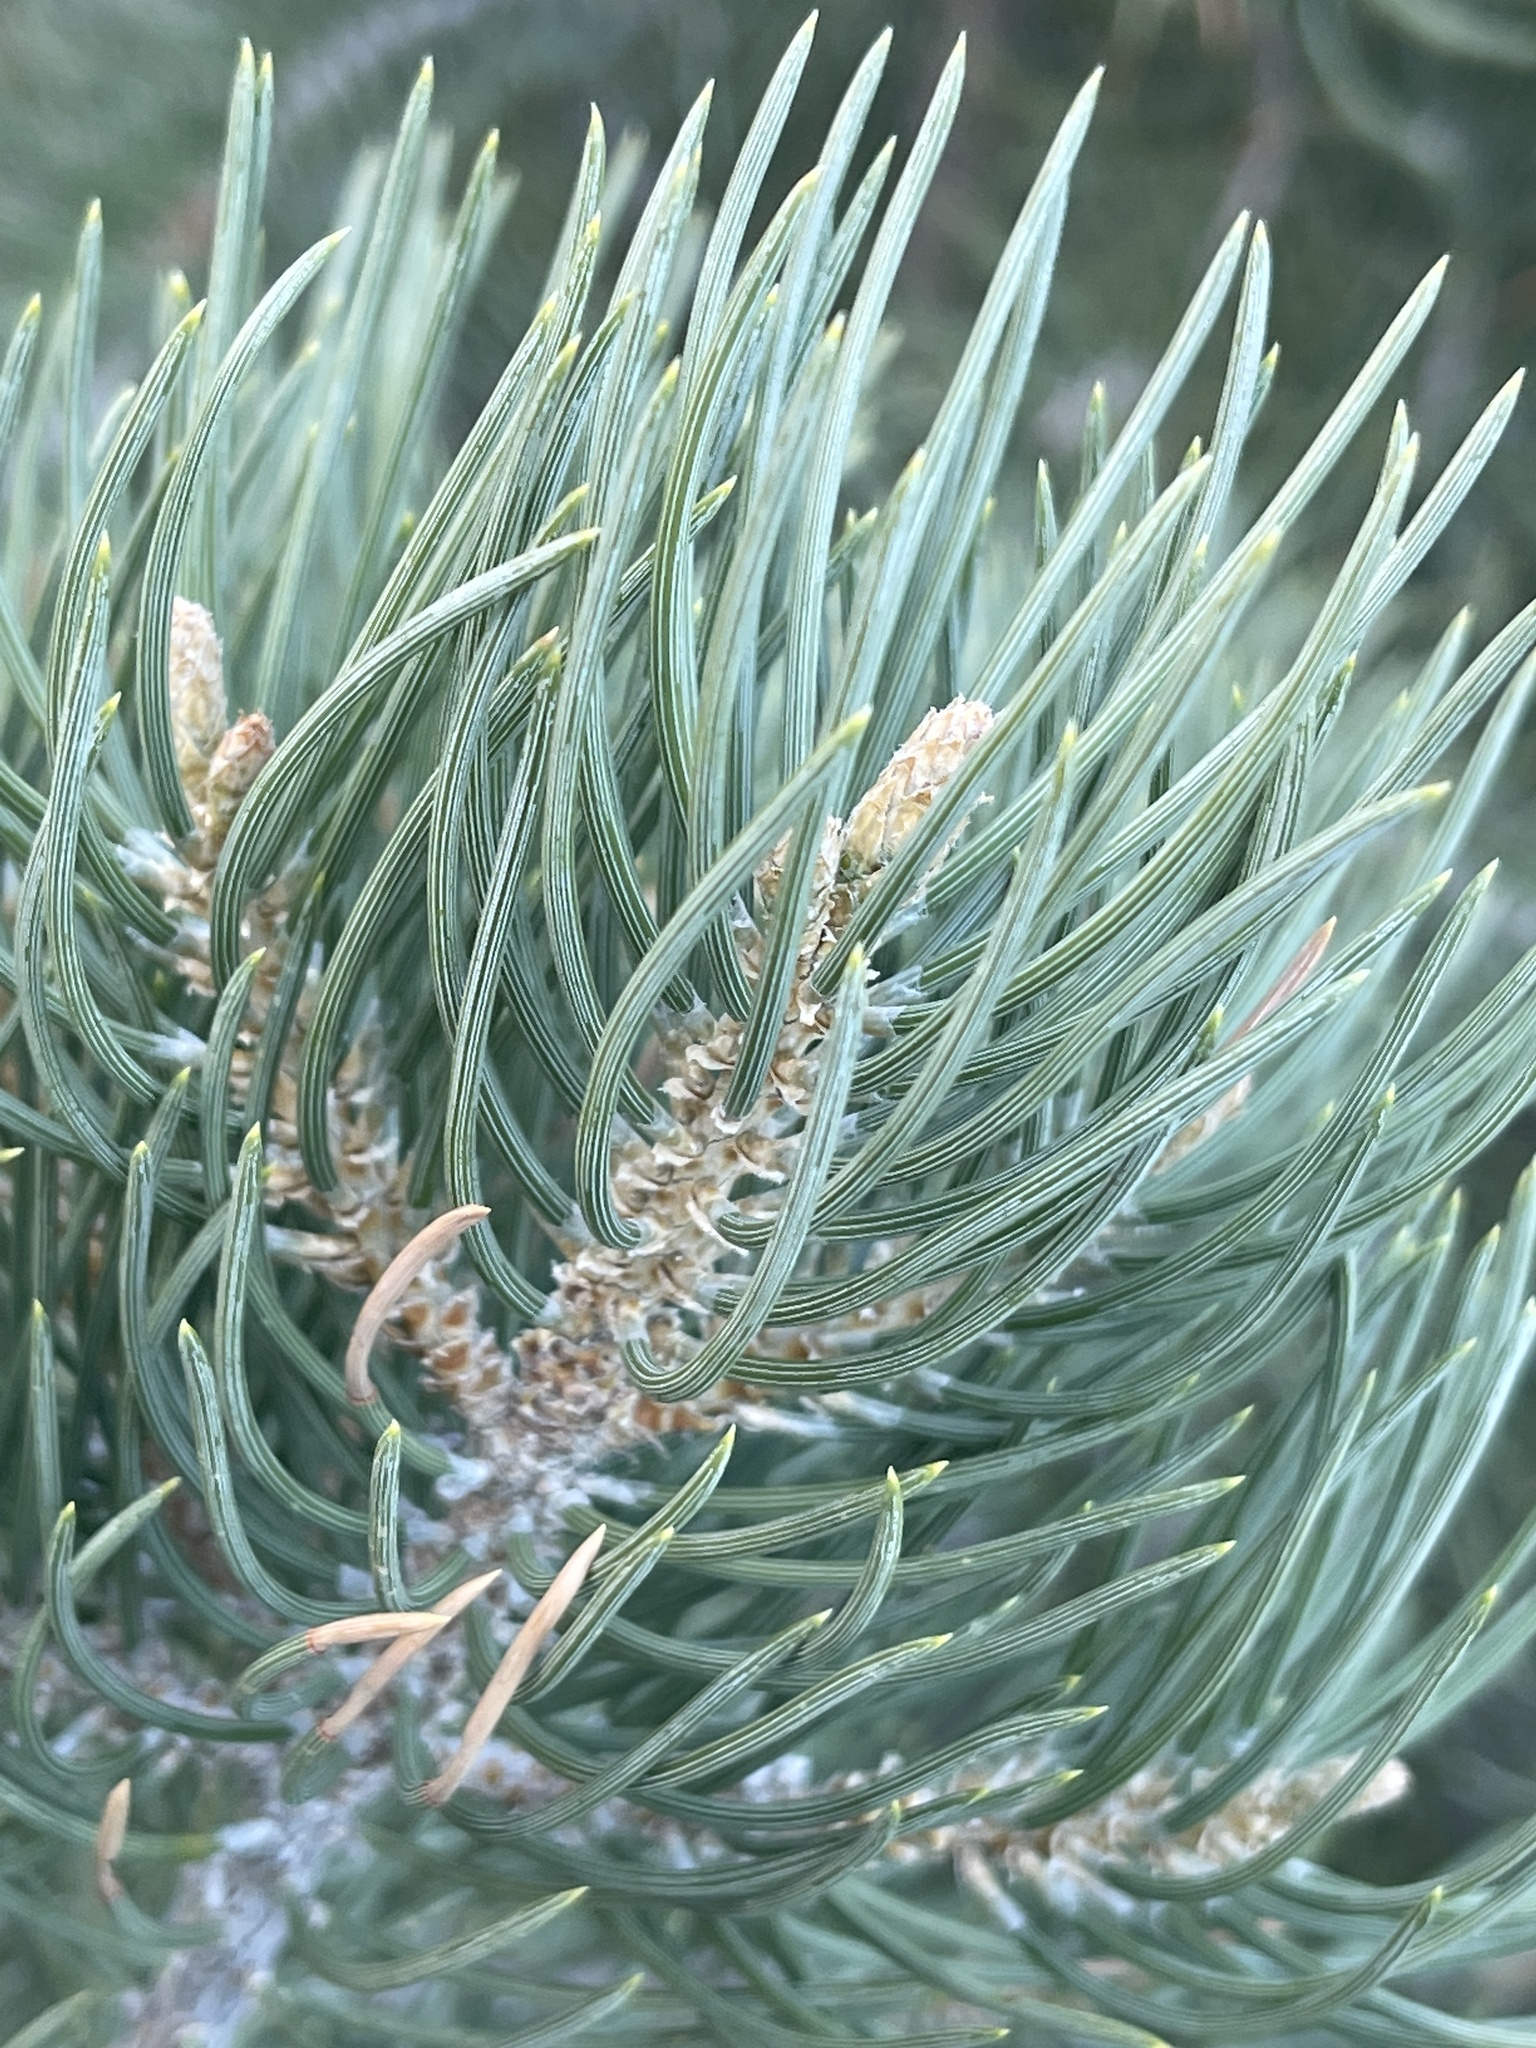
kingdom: Plantae
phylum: Tracheophyta
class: Pinopsida
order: Pinales
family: Pinaceae
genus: Pinus
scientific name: Pinus monophylla
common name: One-leaved nut pine
